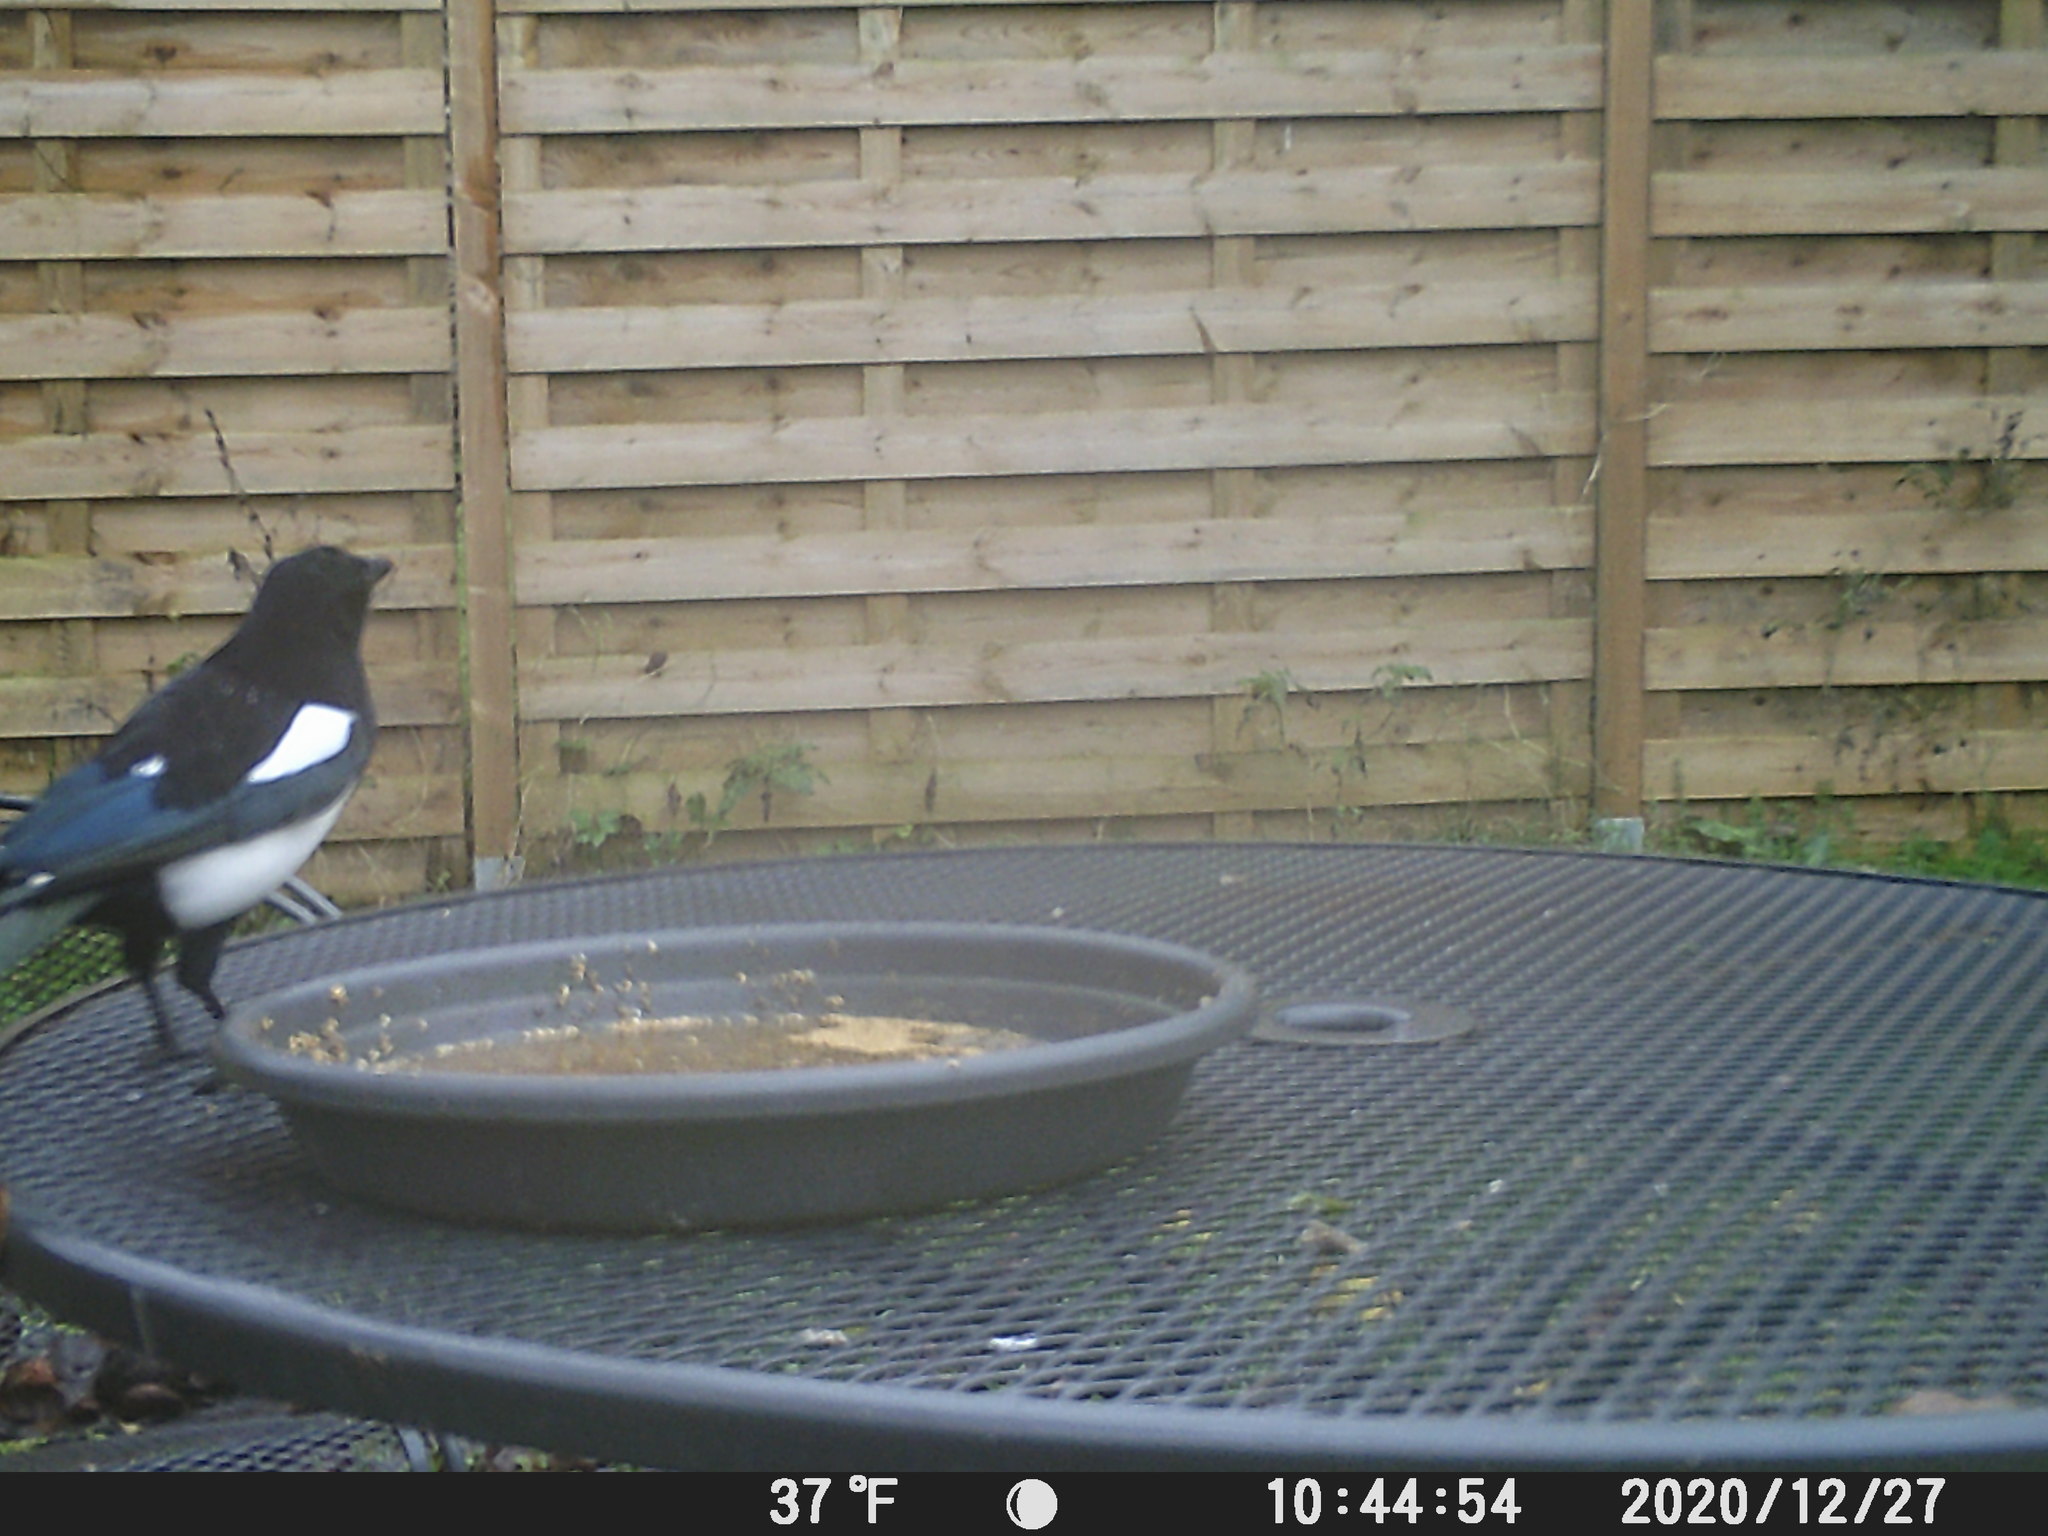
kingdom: Animalia
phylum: Chordata
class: Aves
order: Passeriformes
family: Corvidae
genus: Pica
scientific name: Pica pica
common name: Eurasian magpie
